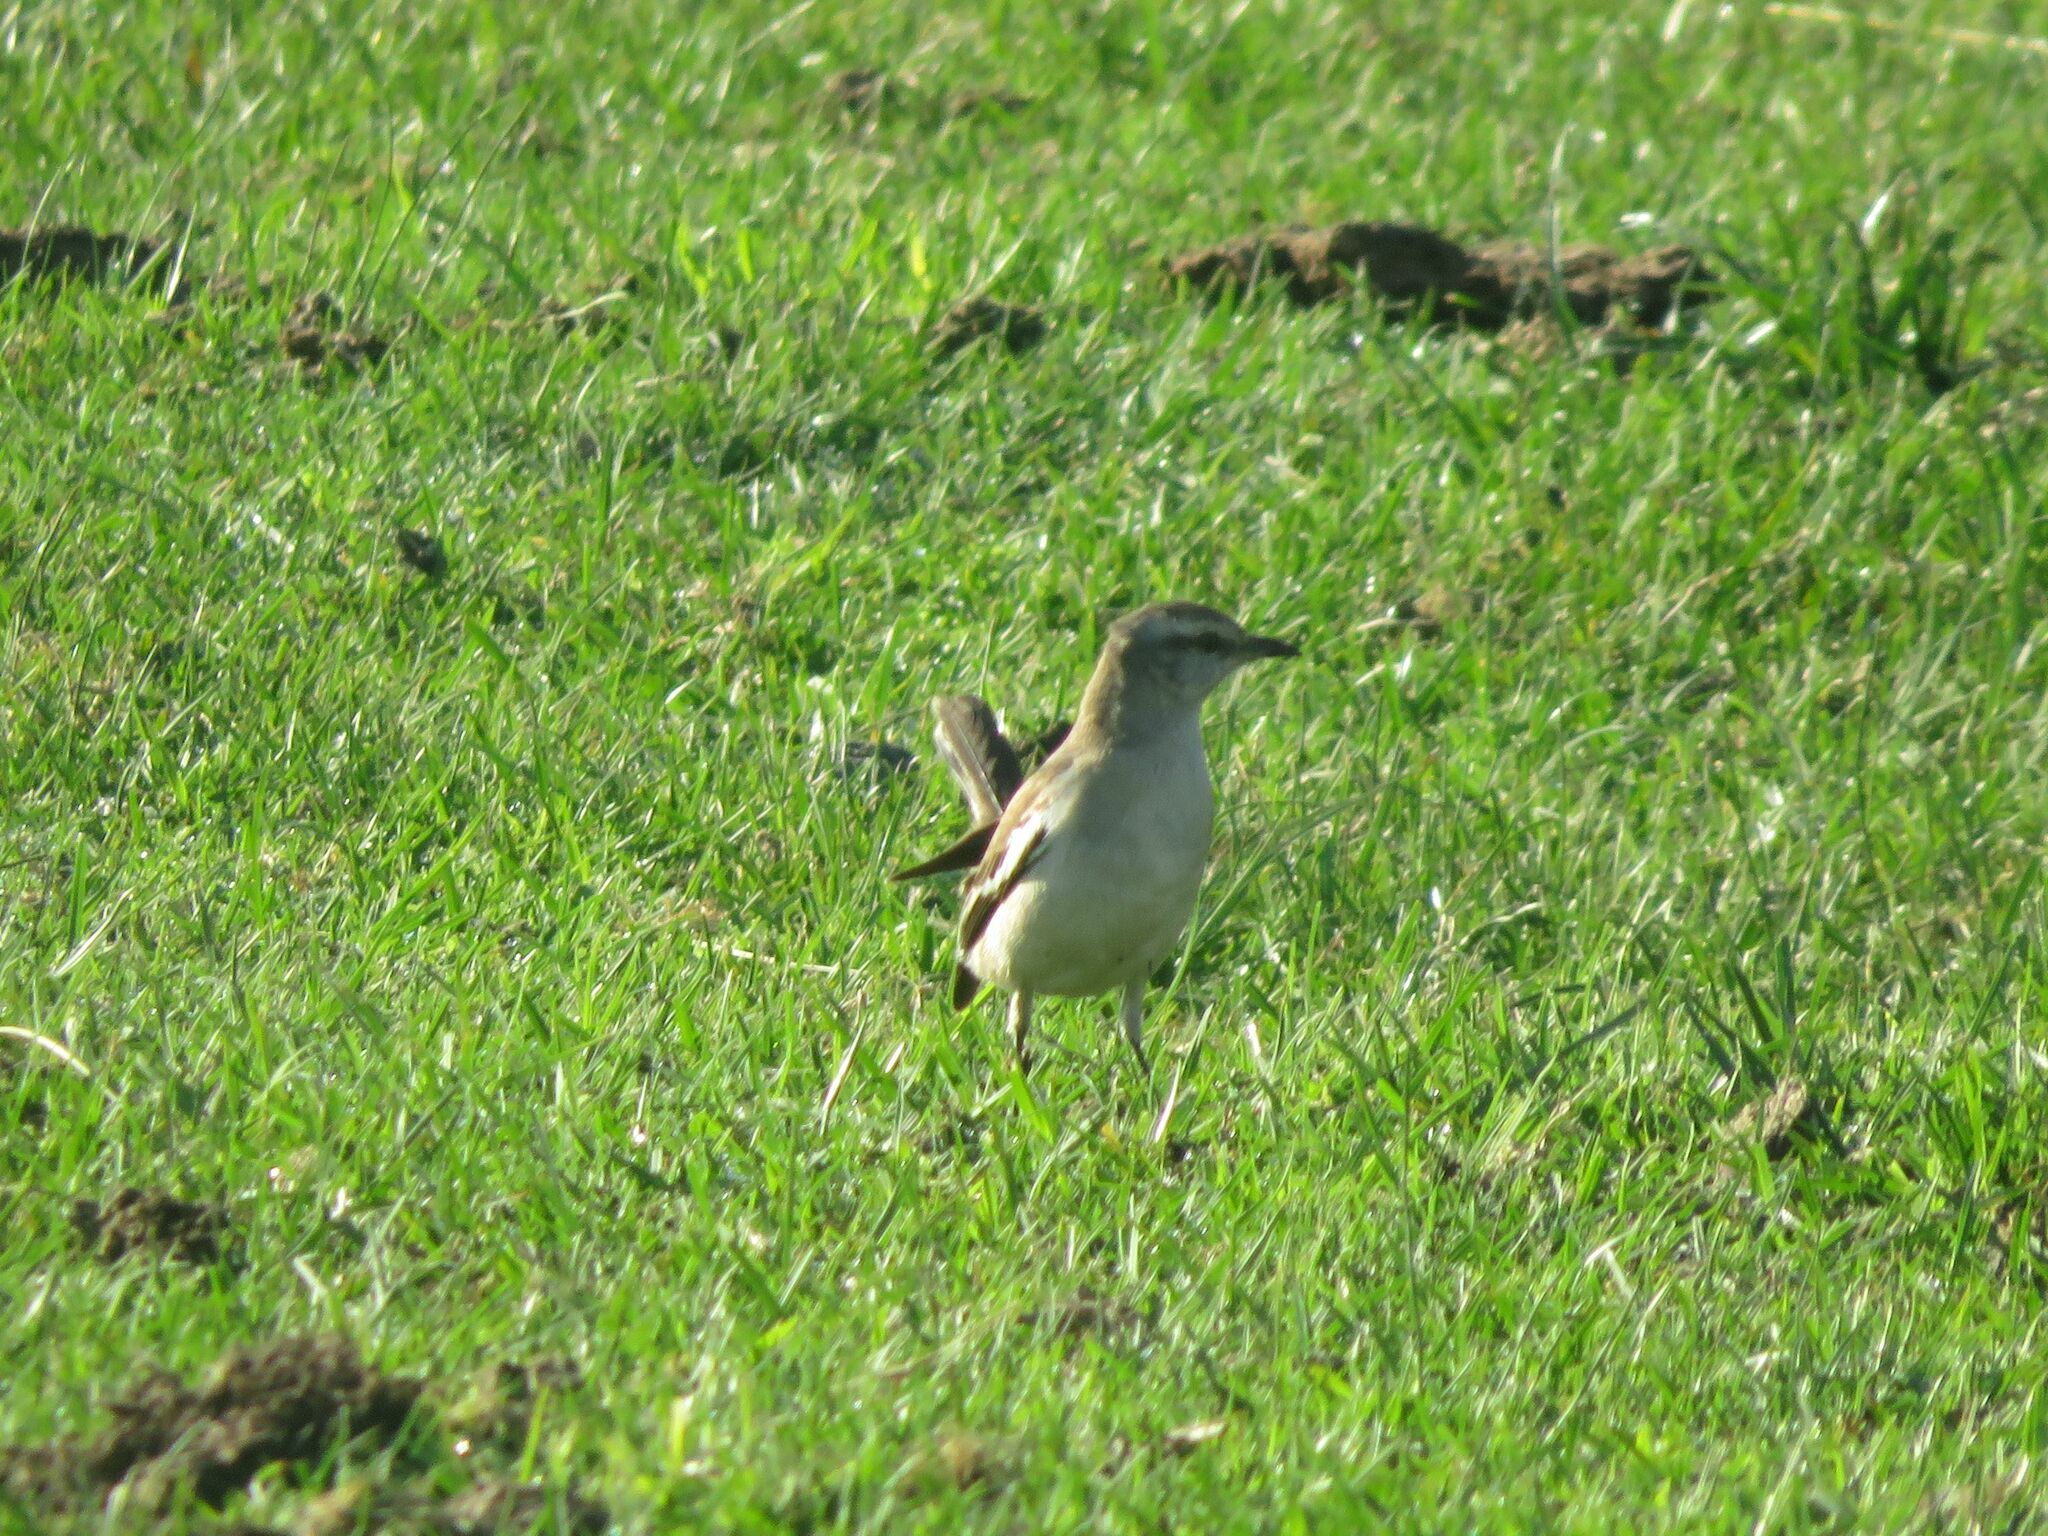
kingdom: Animalia
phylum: Chordata
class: Aves
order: Passeriformes
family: Mimidae
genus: Mimus
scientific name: Mimus triurus
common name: White-banded mockingbird
